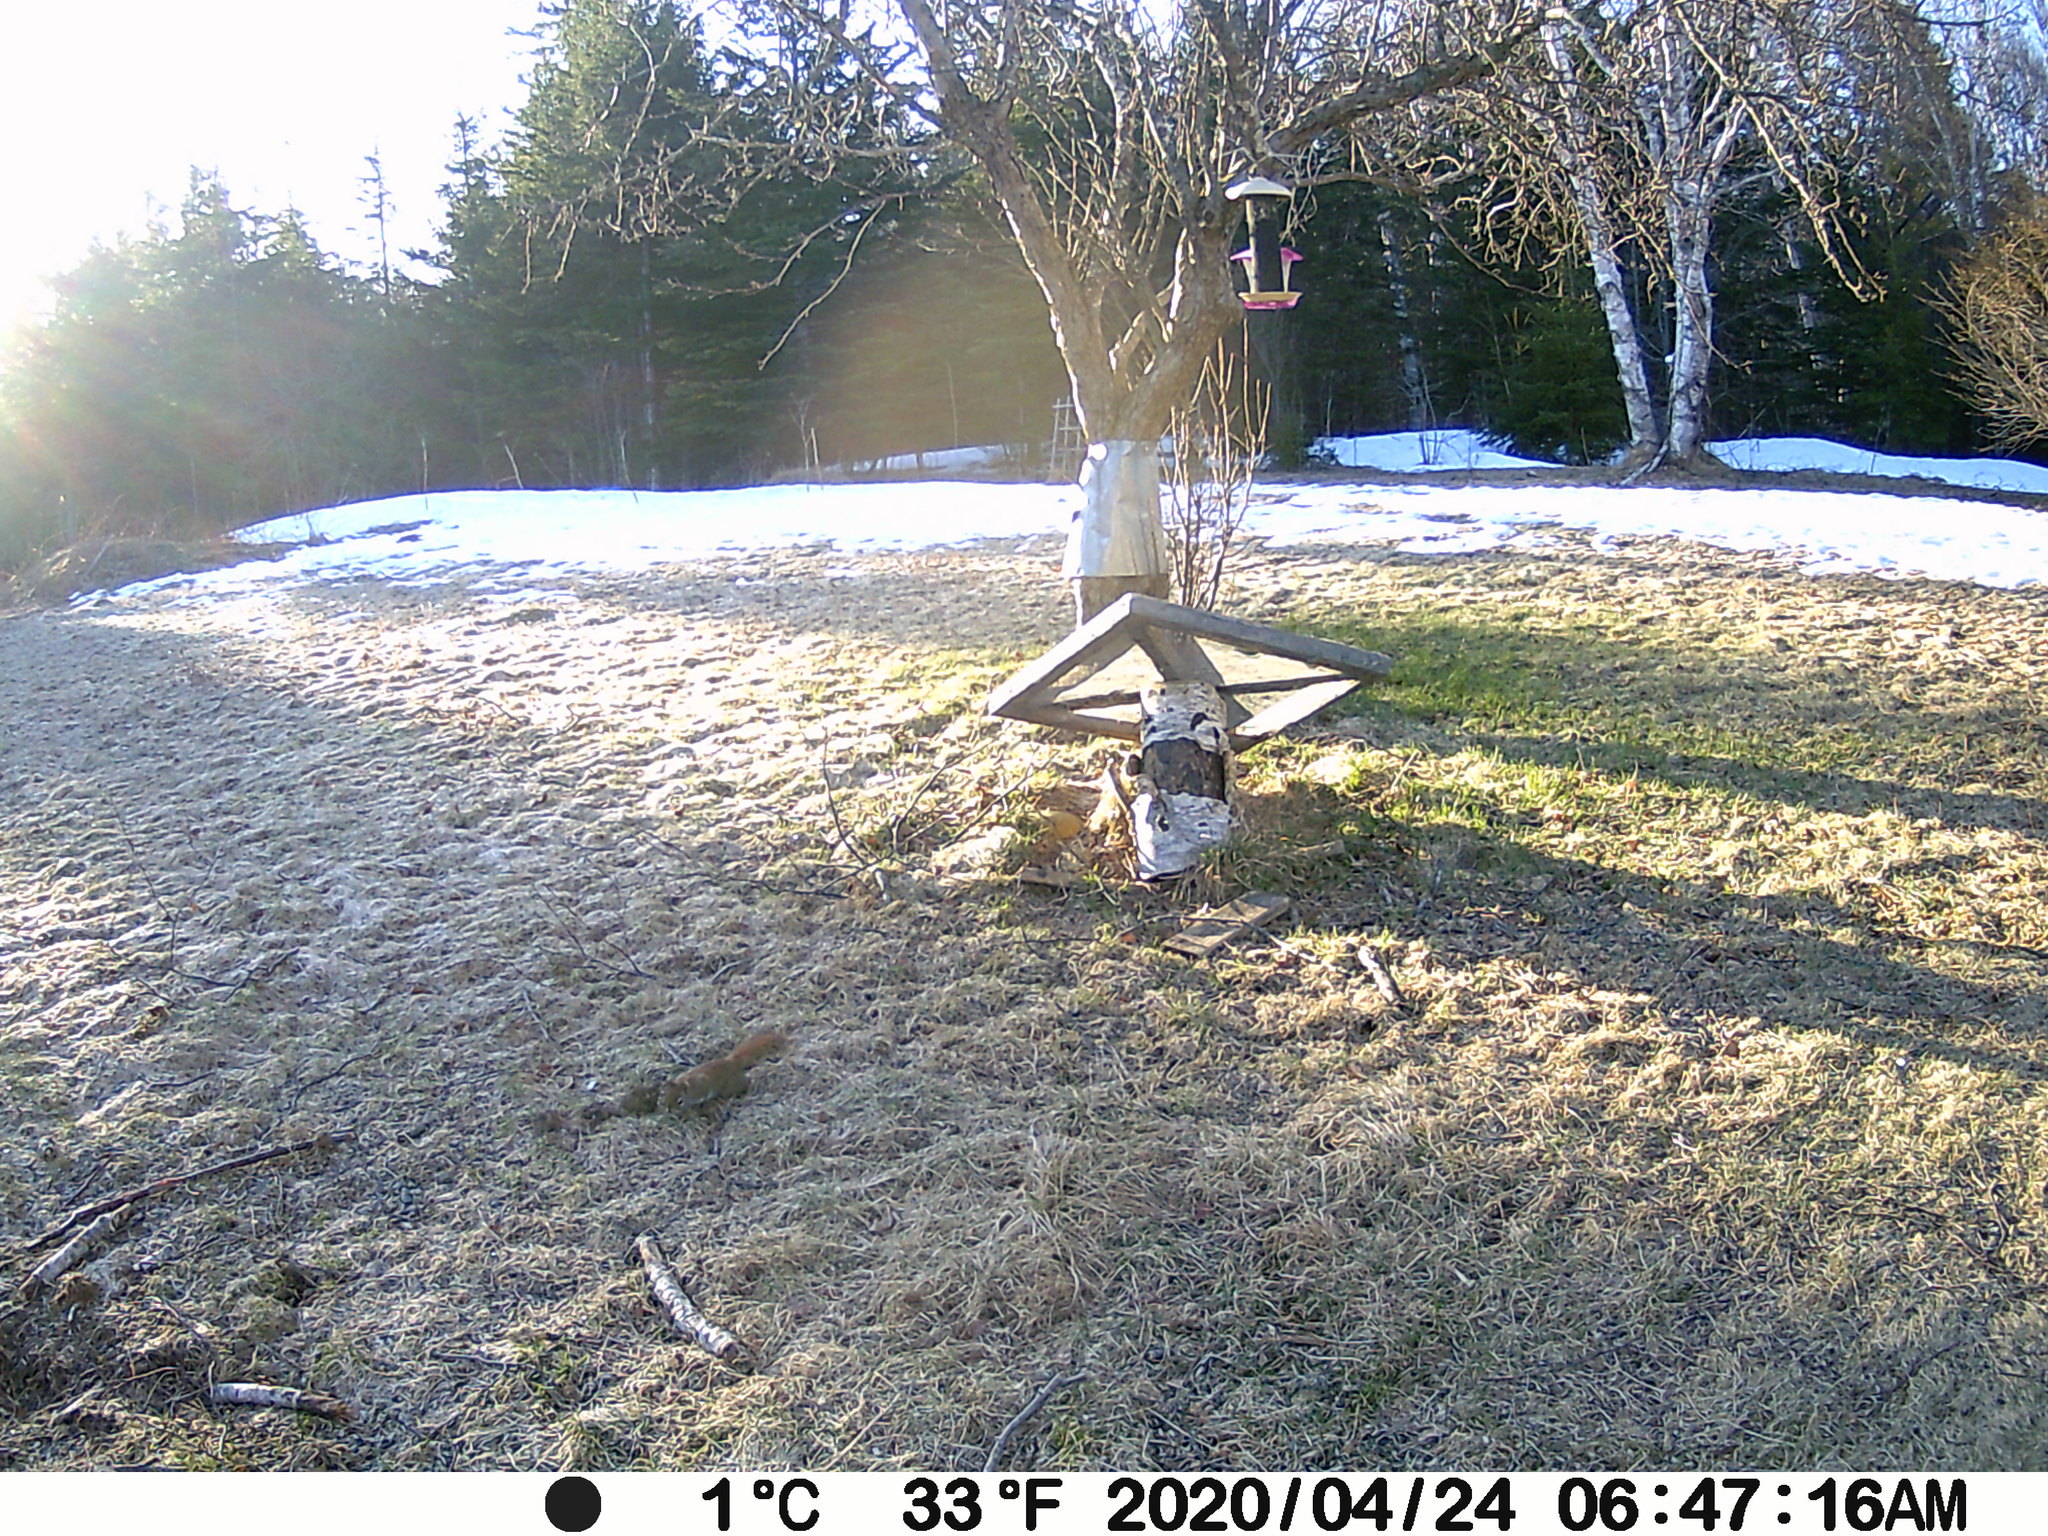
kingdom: Animalia
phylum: Chordata
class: Mammalia
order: Rodentia
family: Sciuridae
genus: Tamiasciurus
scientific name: Tamiasciurus hudsonicus
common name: Red squirrel
